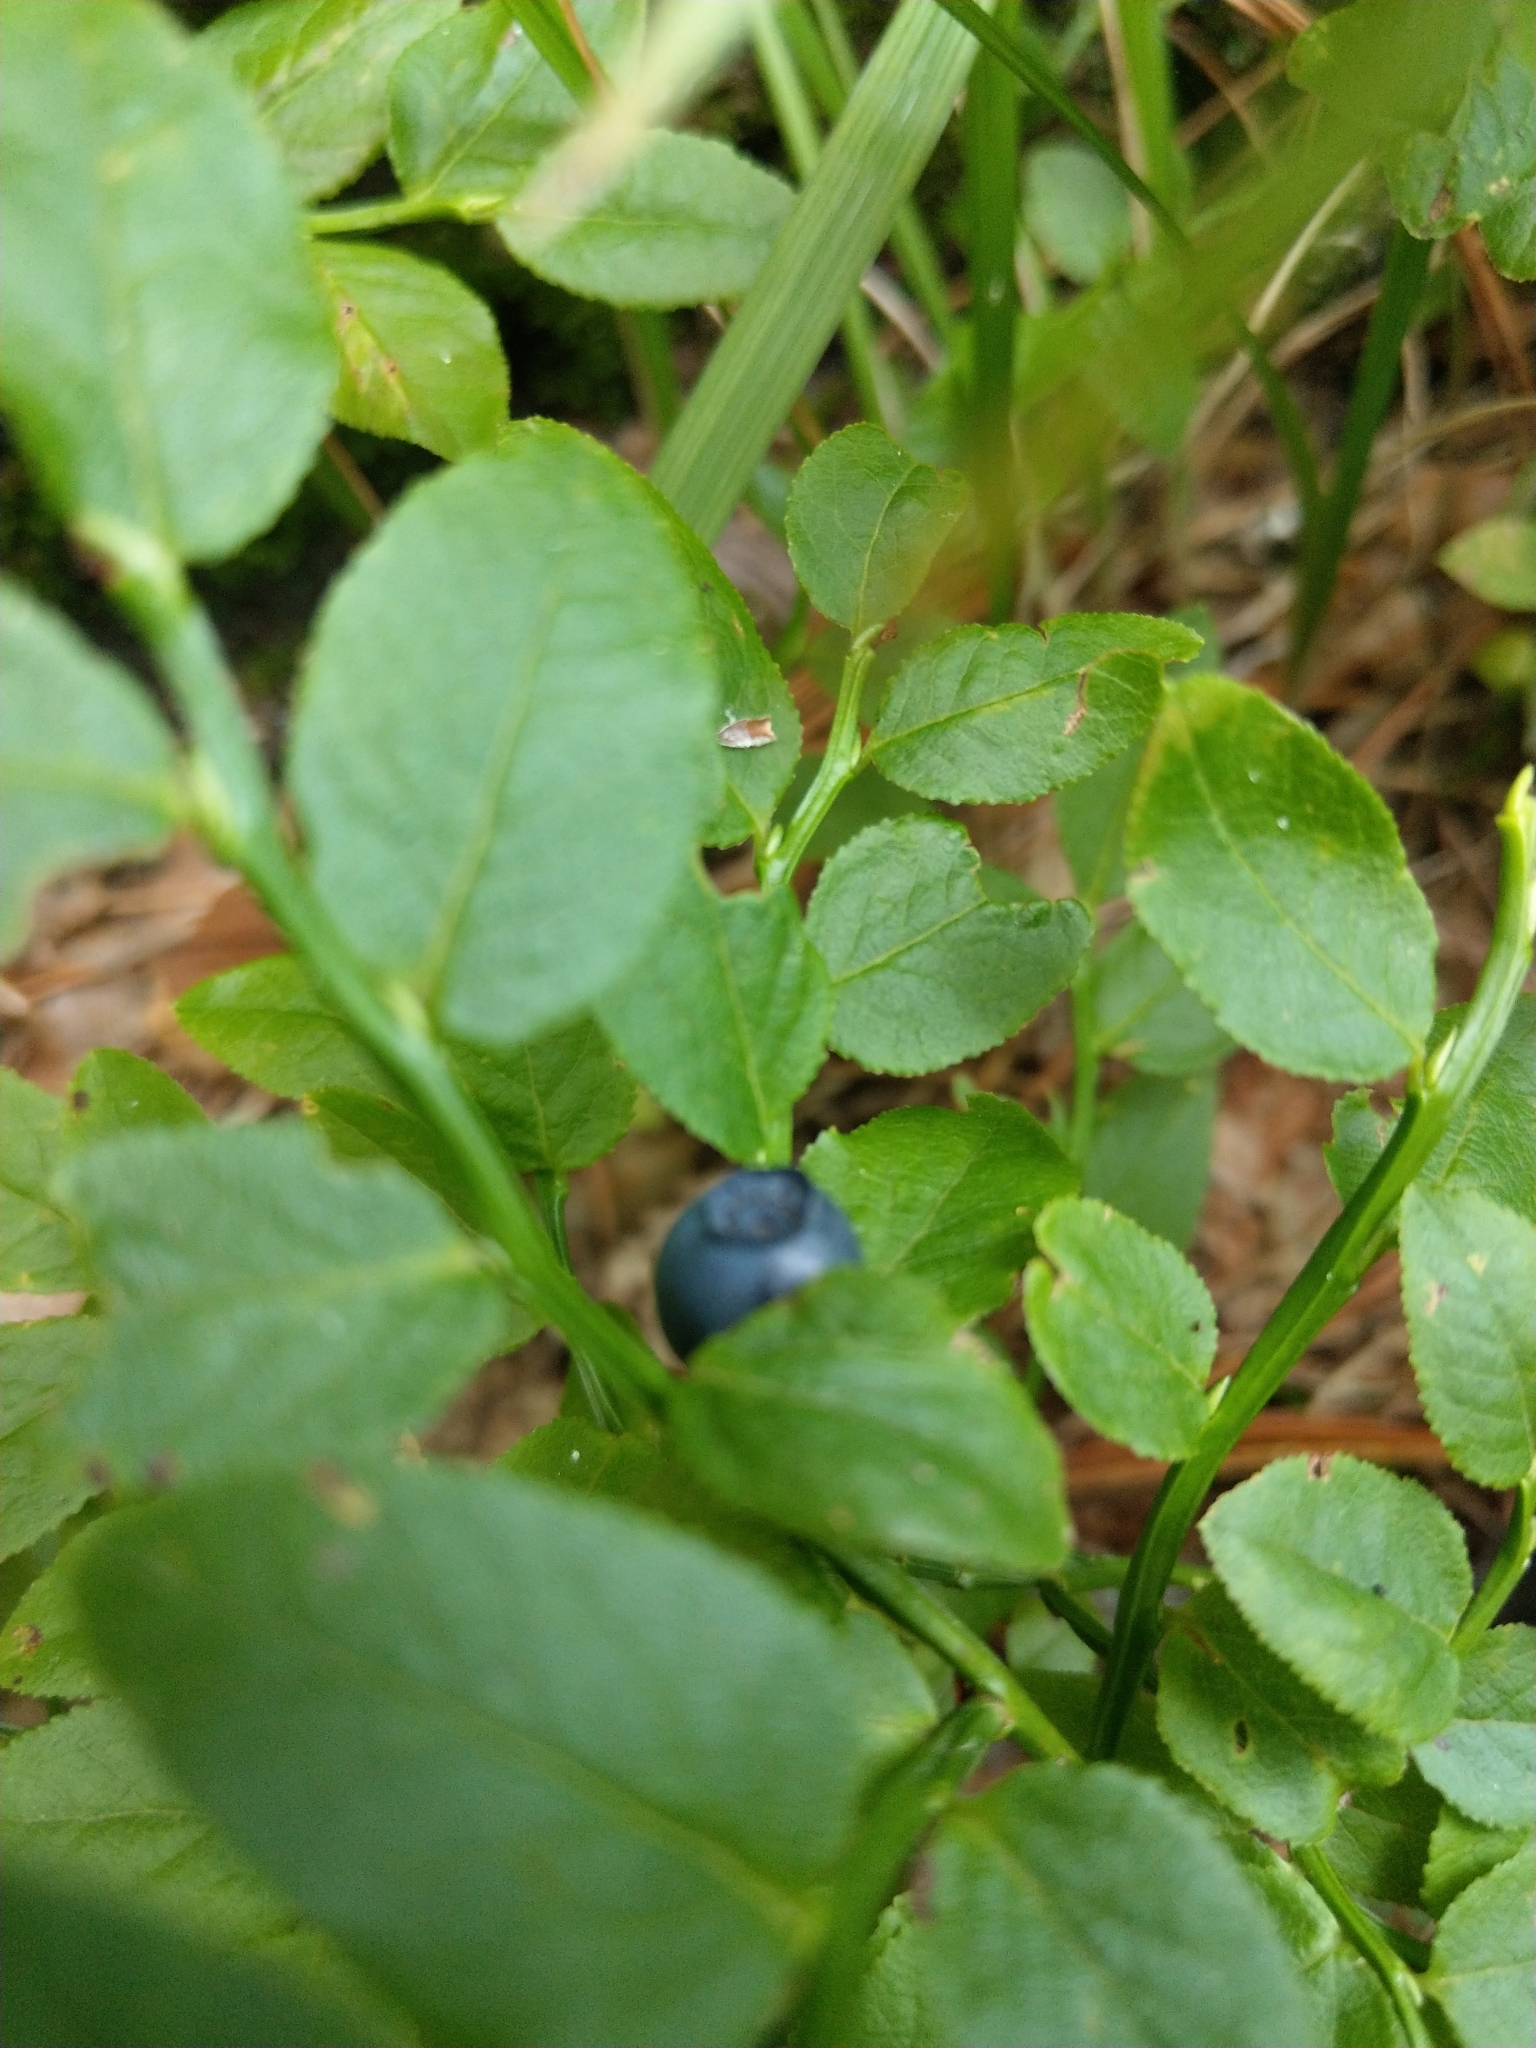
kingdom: Plantae
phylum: Tracheophyta
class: Magnoliopsida
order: Ericales
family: Ericaceae
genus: Vaccinium
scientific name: Vaccinium myrtillus
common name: Bilberry
